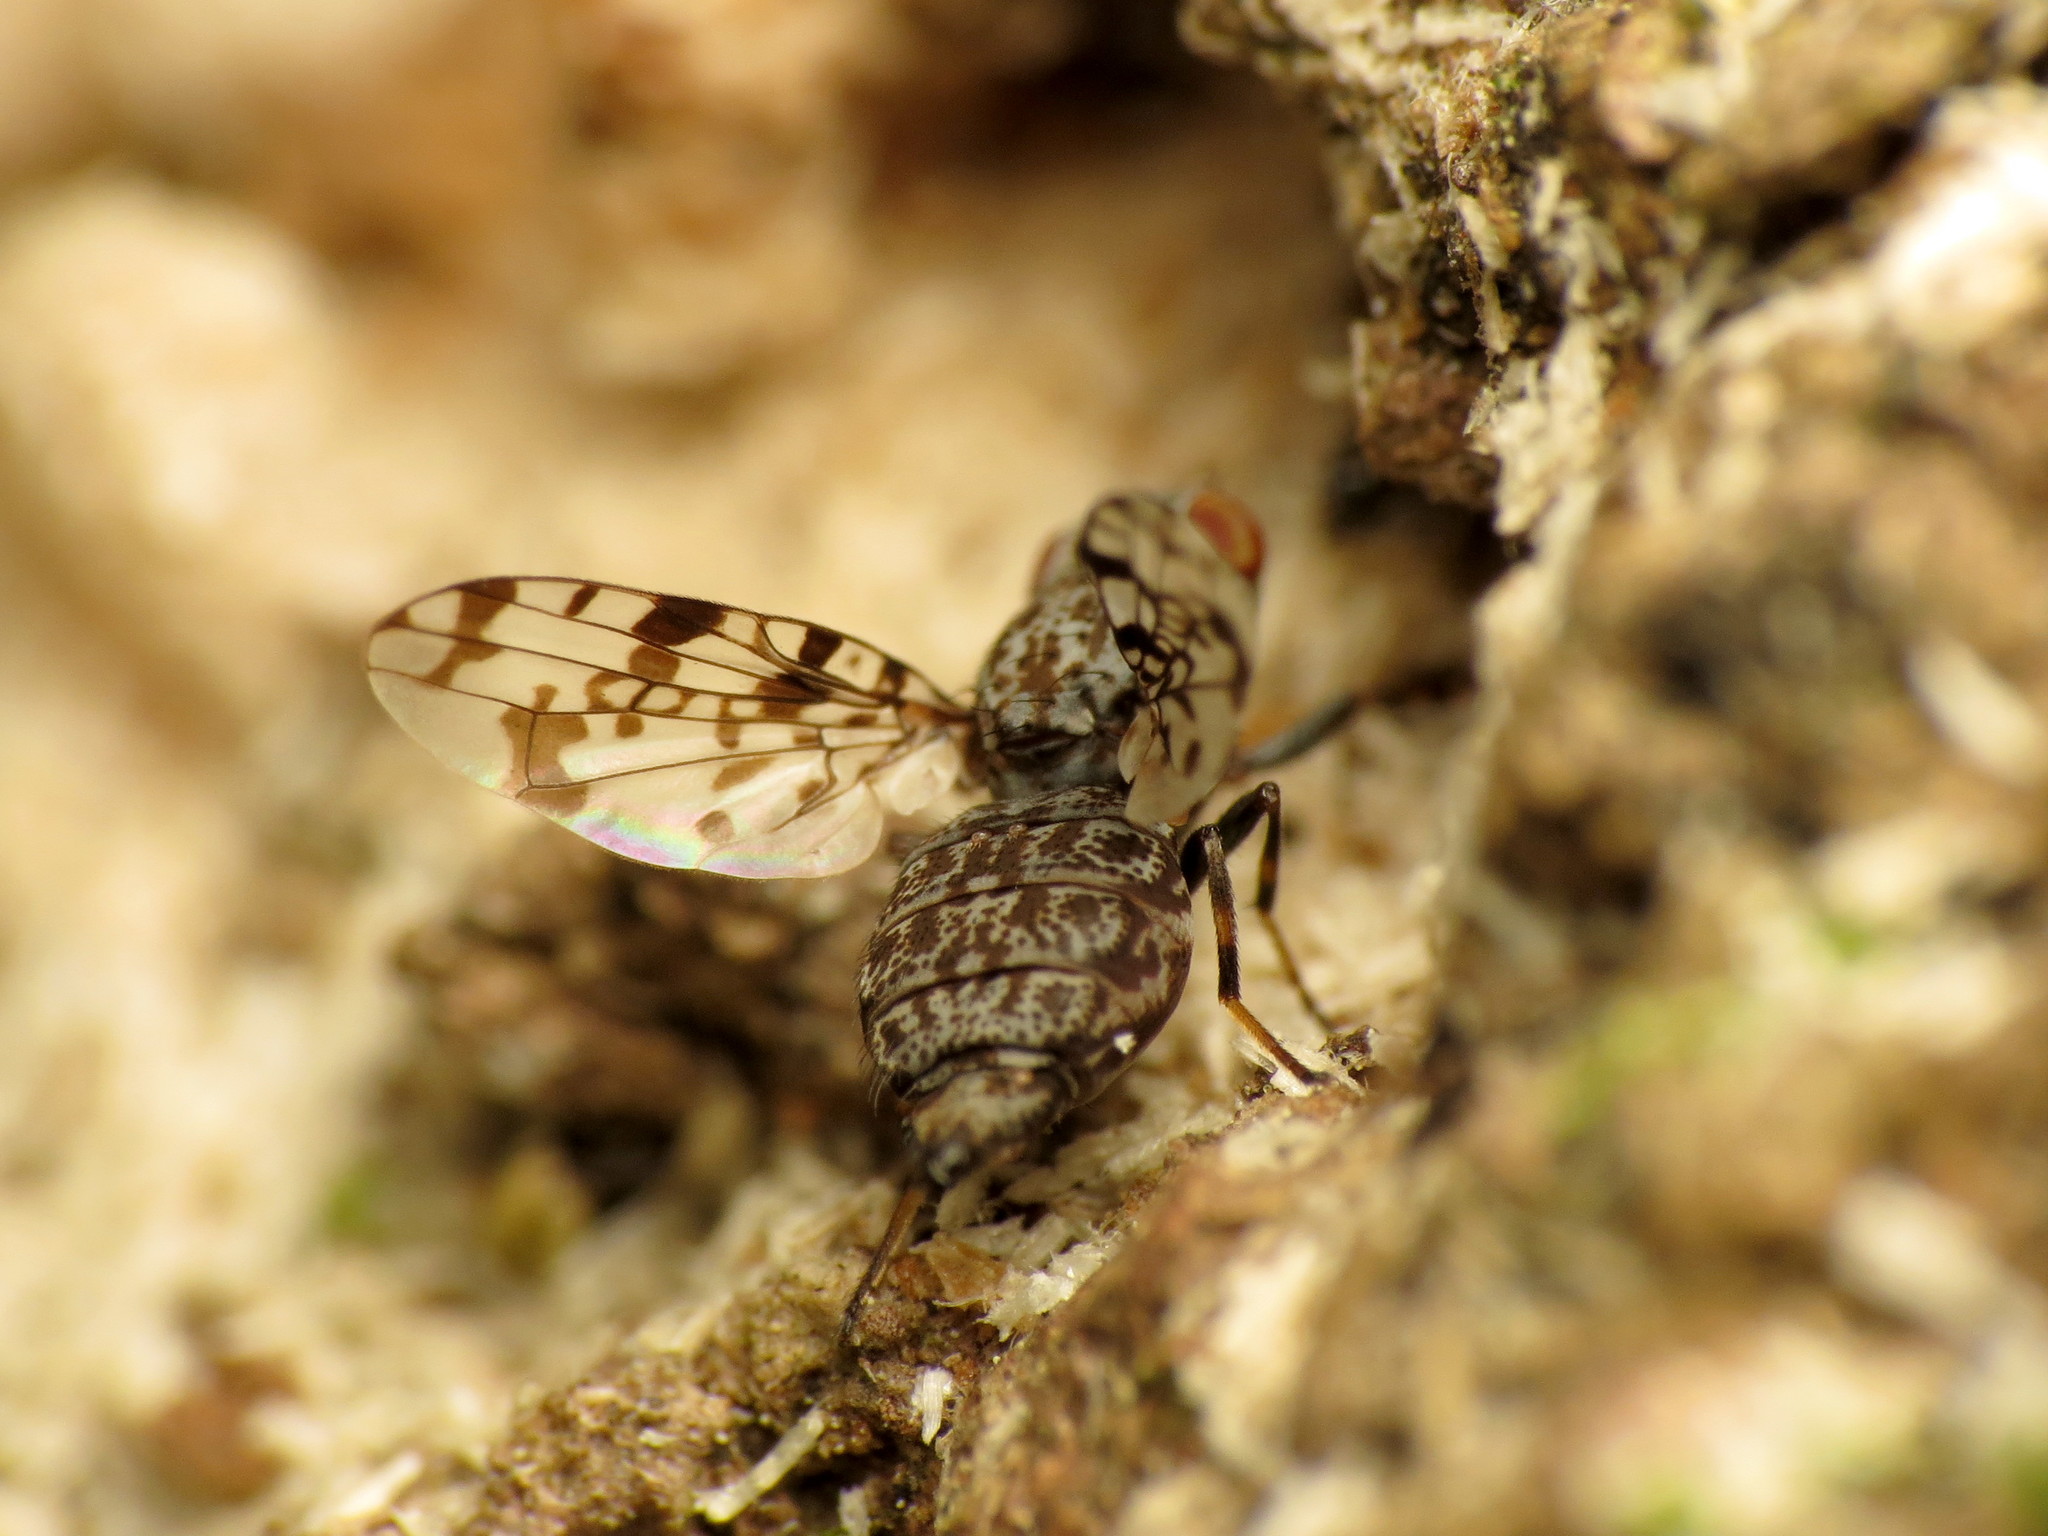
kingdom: Animalia
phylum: Arthropoda
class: Insecta
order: Diptera
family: Ulidiidae
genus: Pseudotephritis
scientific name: Pseudotephritis corticalis
